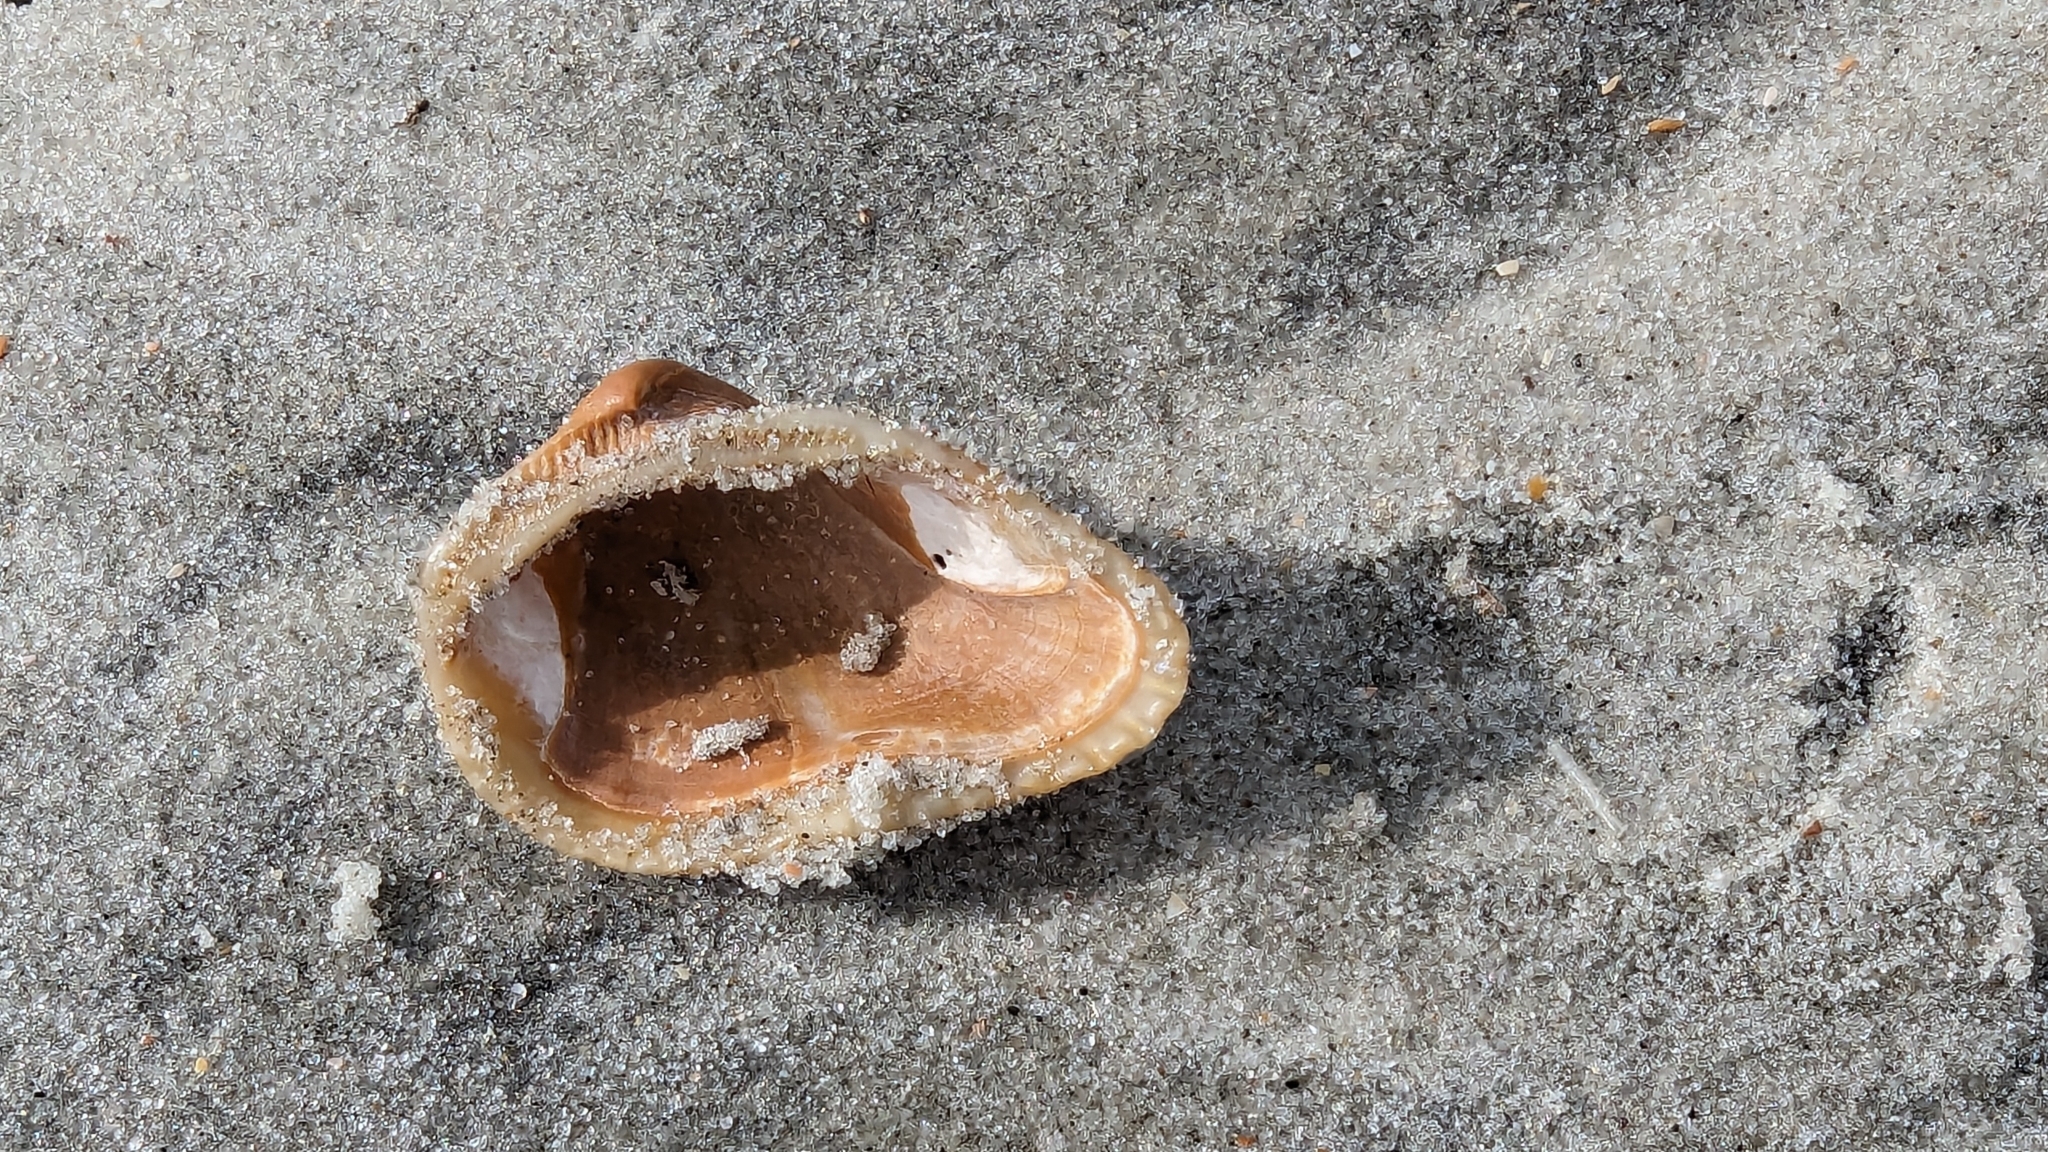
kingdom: Animalia
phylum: Mollusca
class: Bivalvia
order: Arcida
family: Noetiidae
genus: Noetia
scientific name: Noetia ponderosa
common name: Ponderous ark
